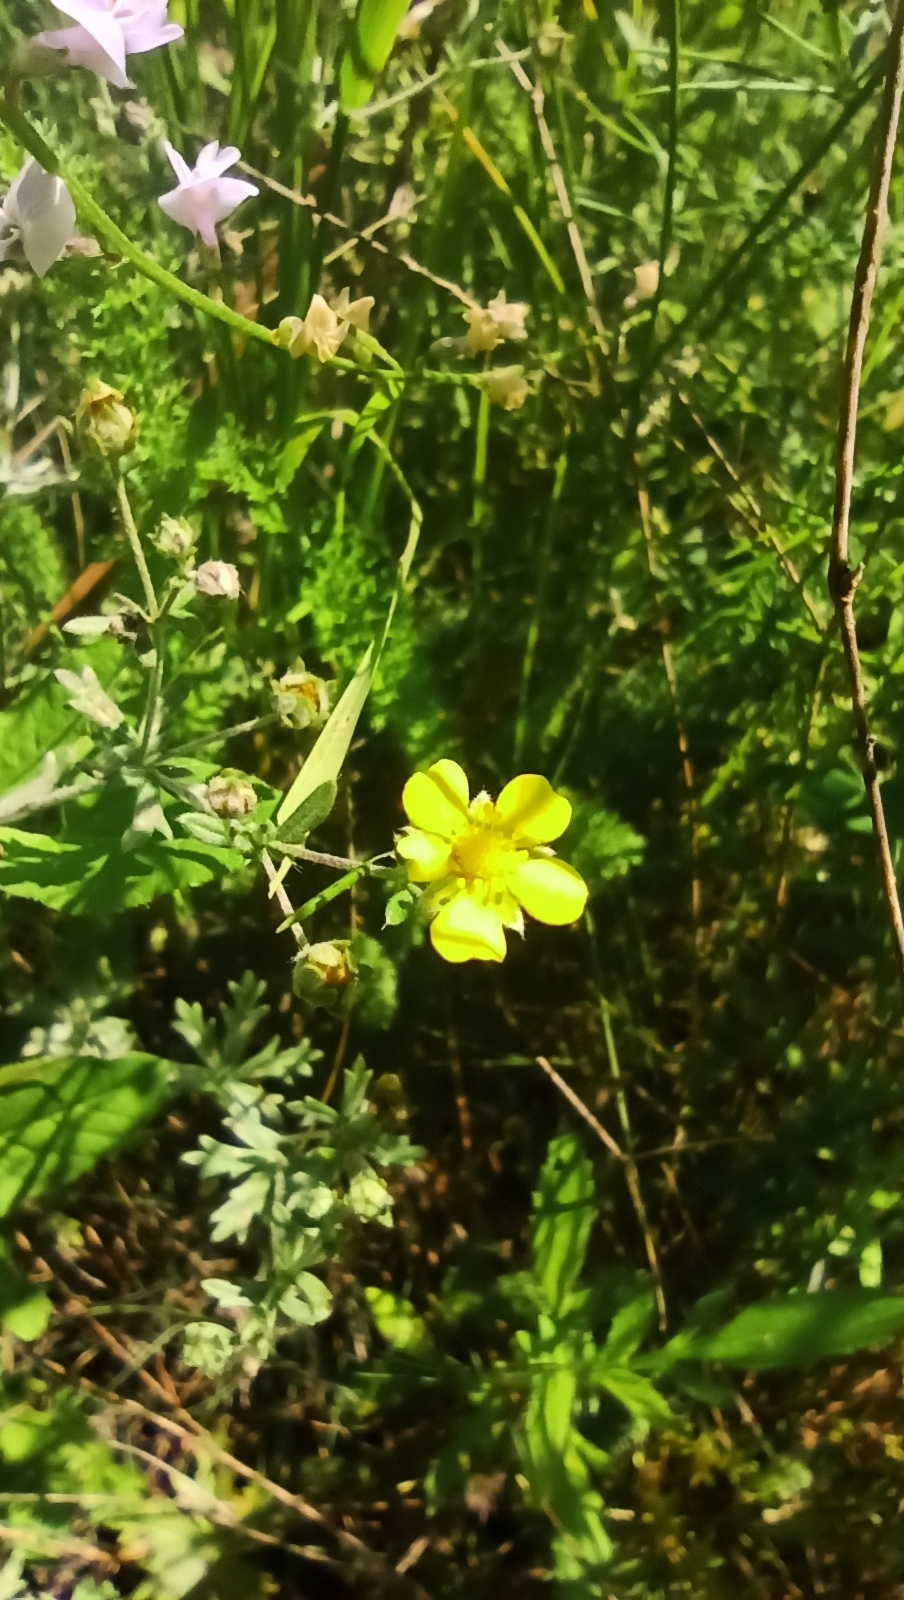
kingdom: Plantae
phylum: Tracheophyta
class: Magnoliopsida
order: Rosales
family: Rosaceae
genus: Potentilla
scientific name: Potentilla argentea
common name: Hoary cinquefoil
